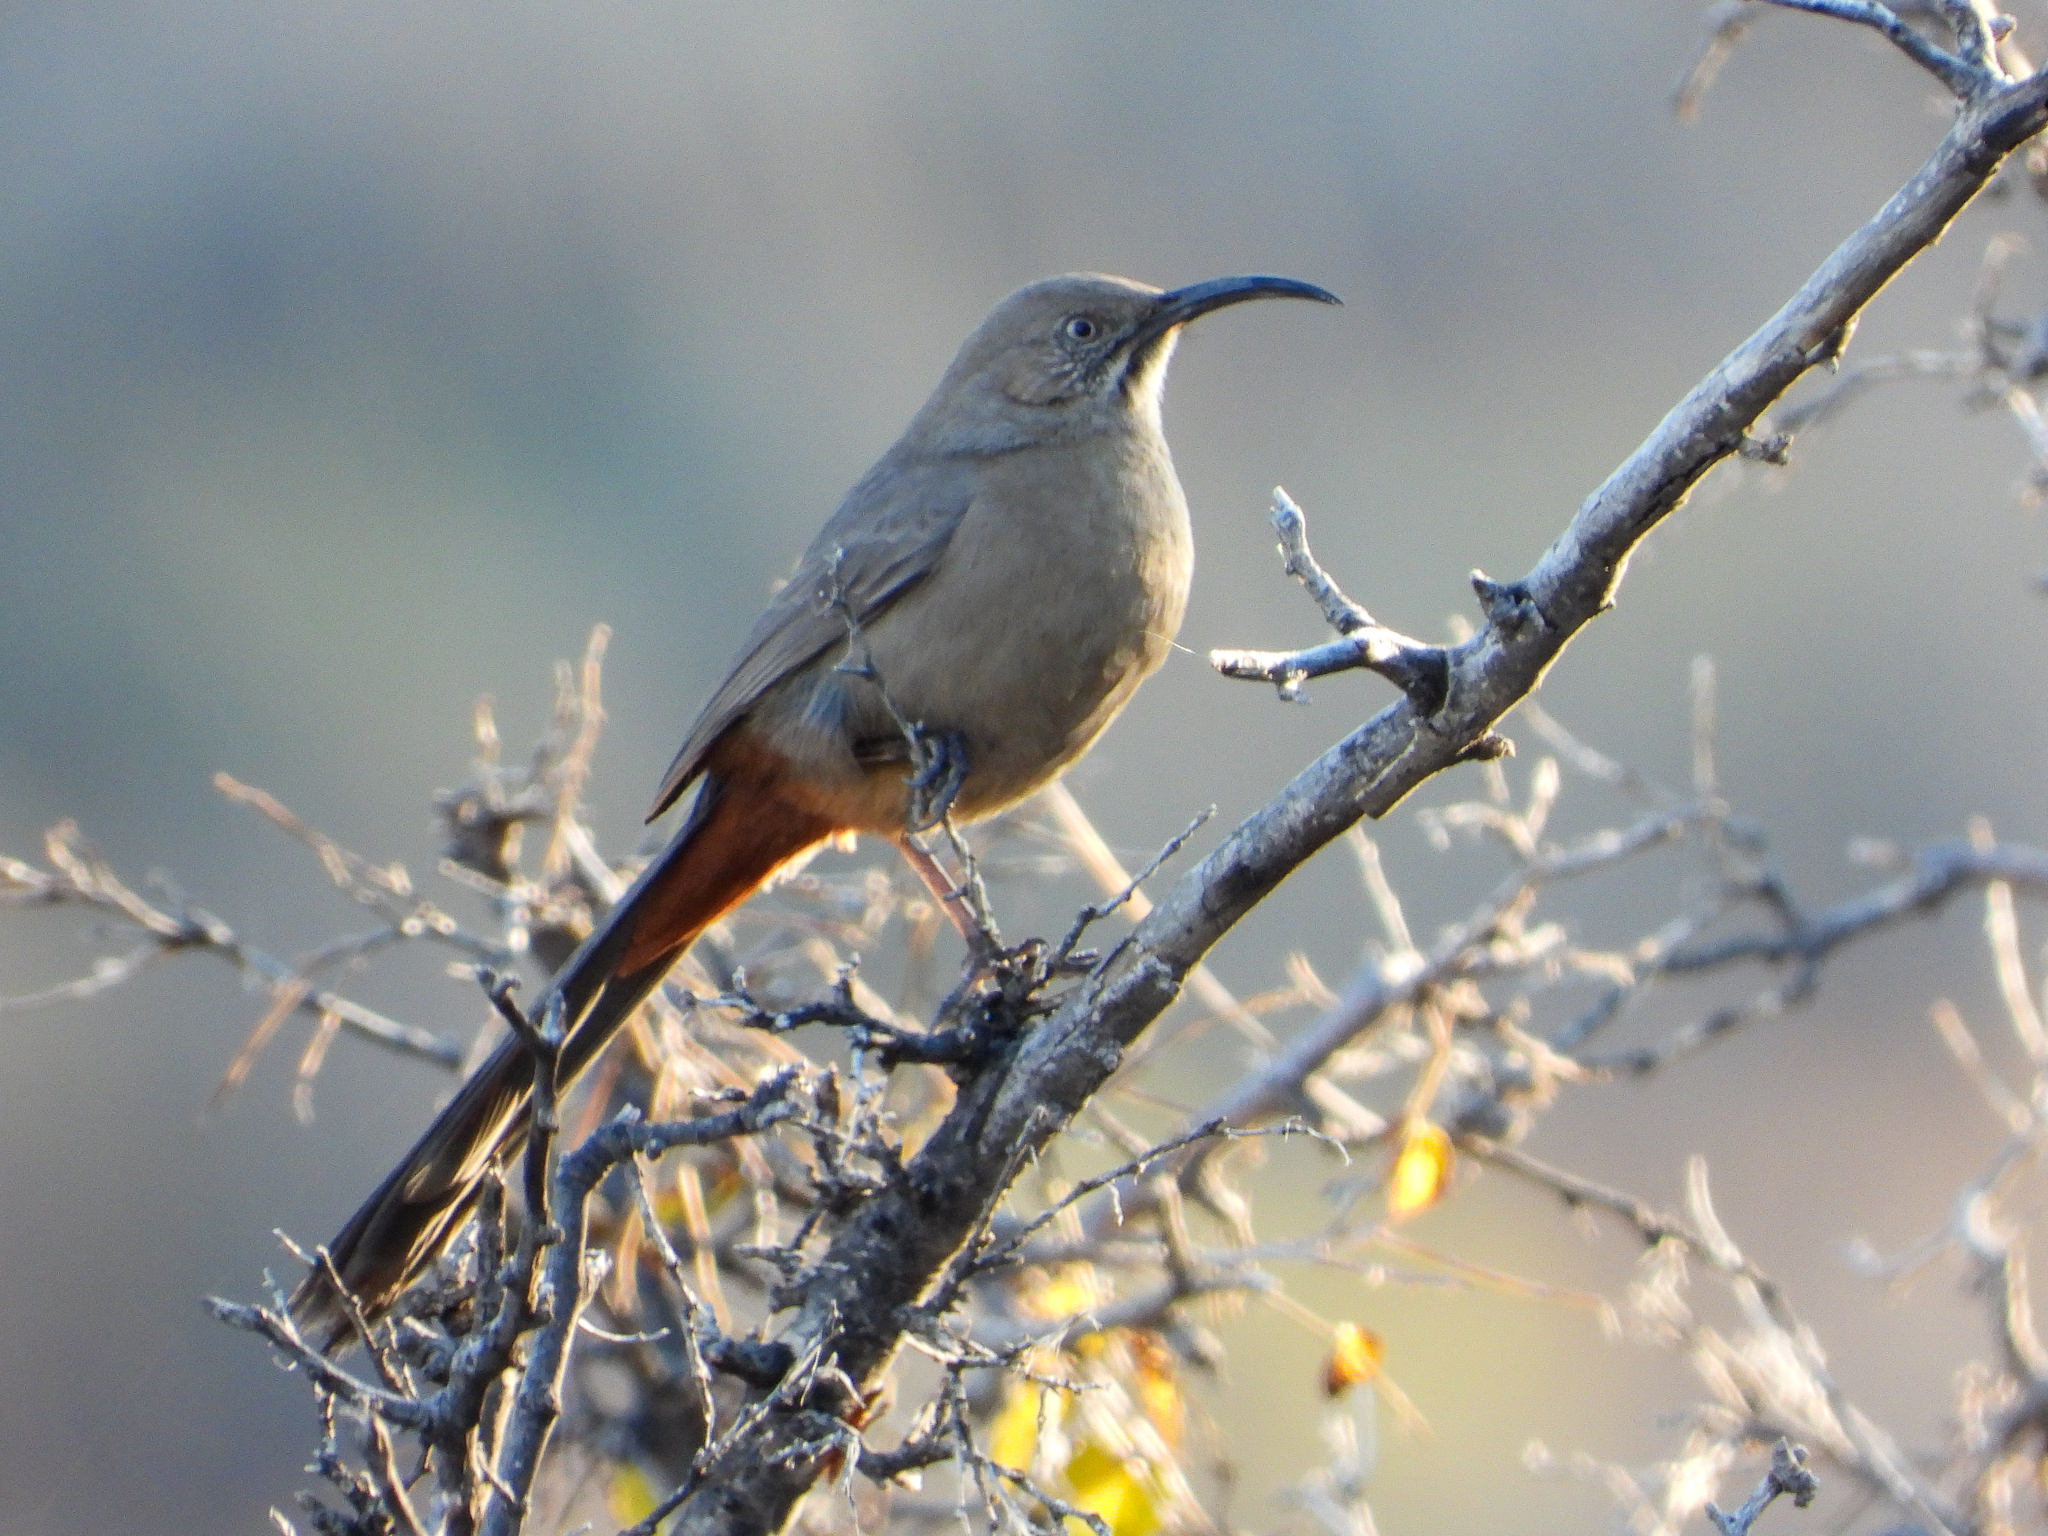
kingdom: Animalia
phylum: Chordata
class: Aves
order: Passeriformes
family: Mimidae
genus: Toxostoma
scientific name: Toxostoma crissale
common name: Crissal thrasher
